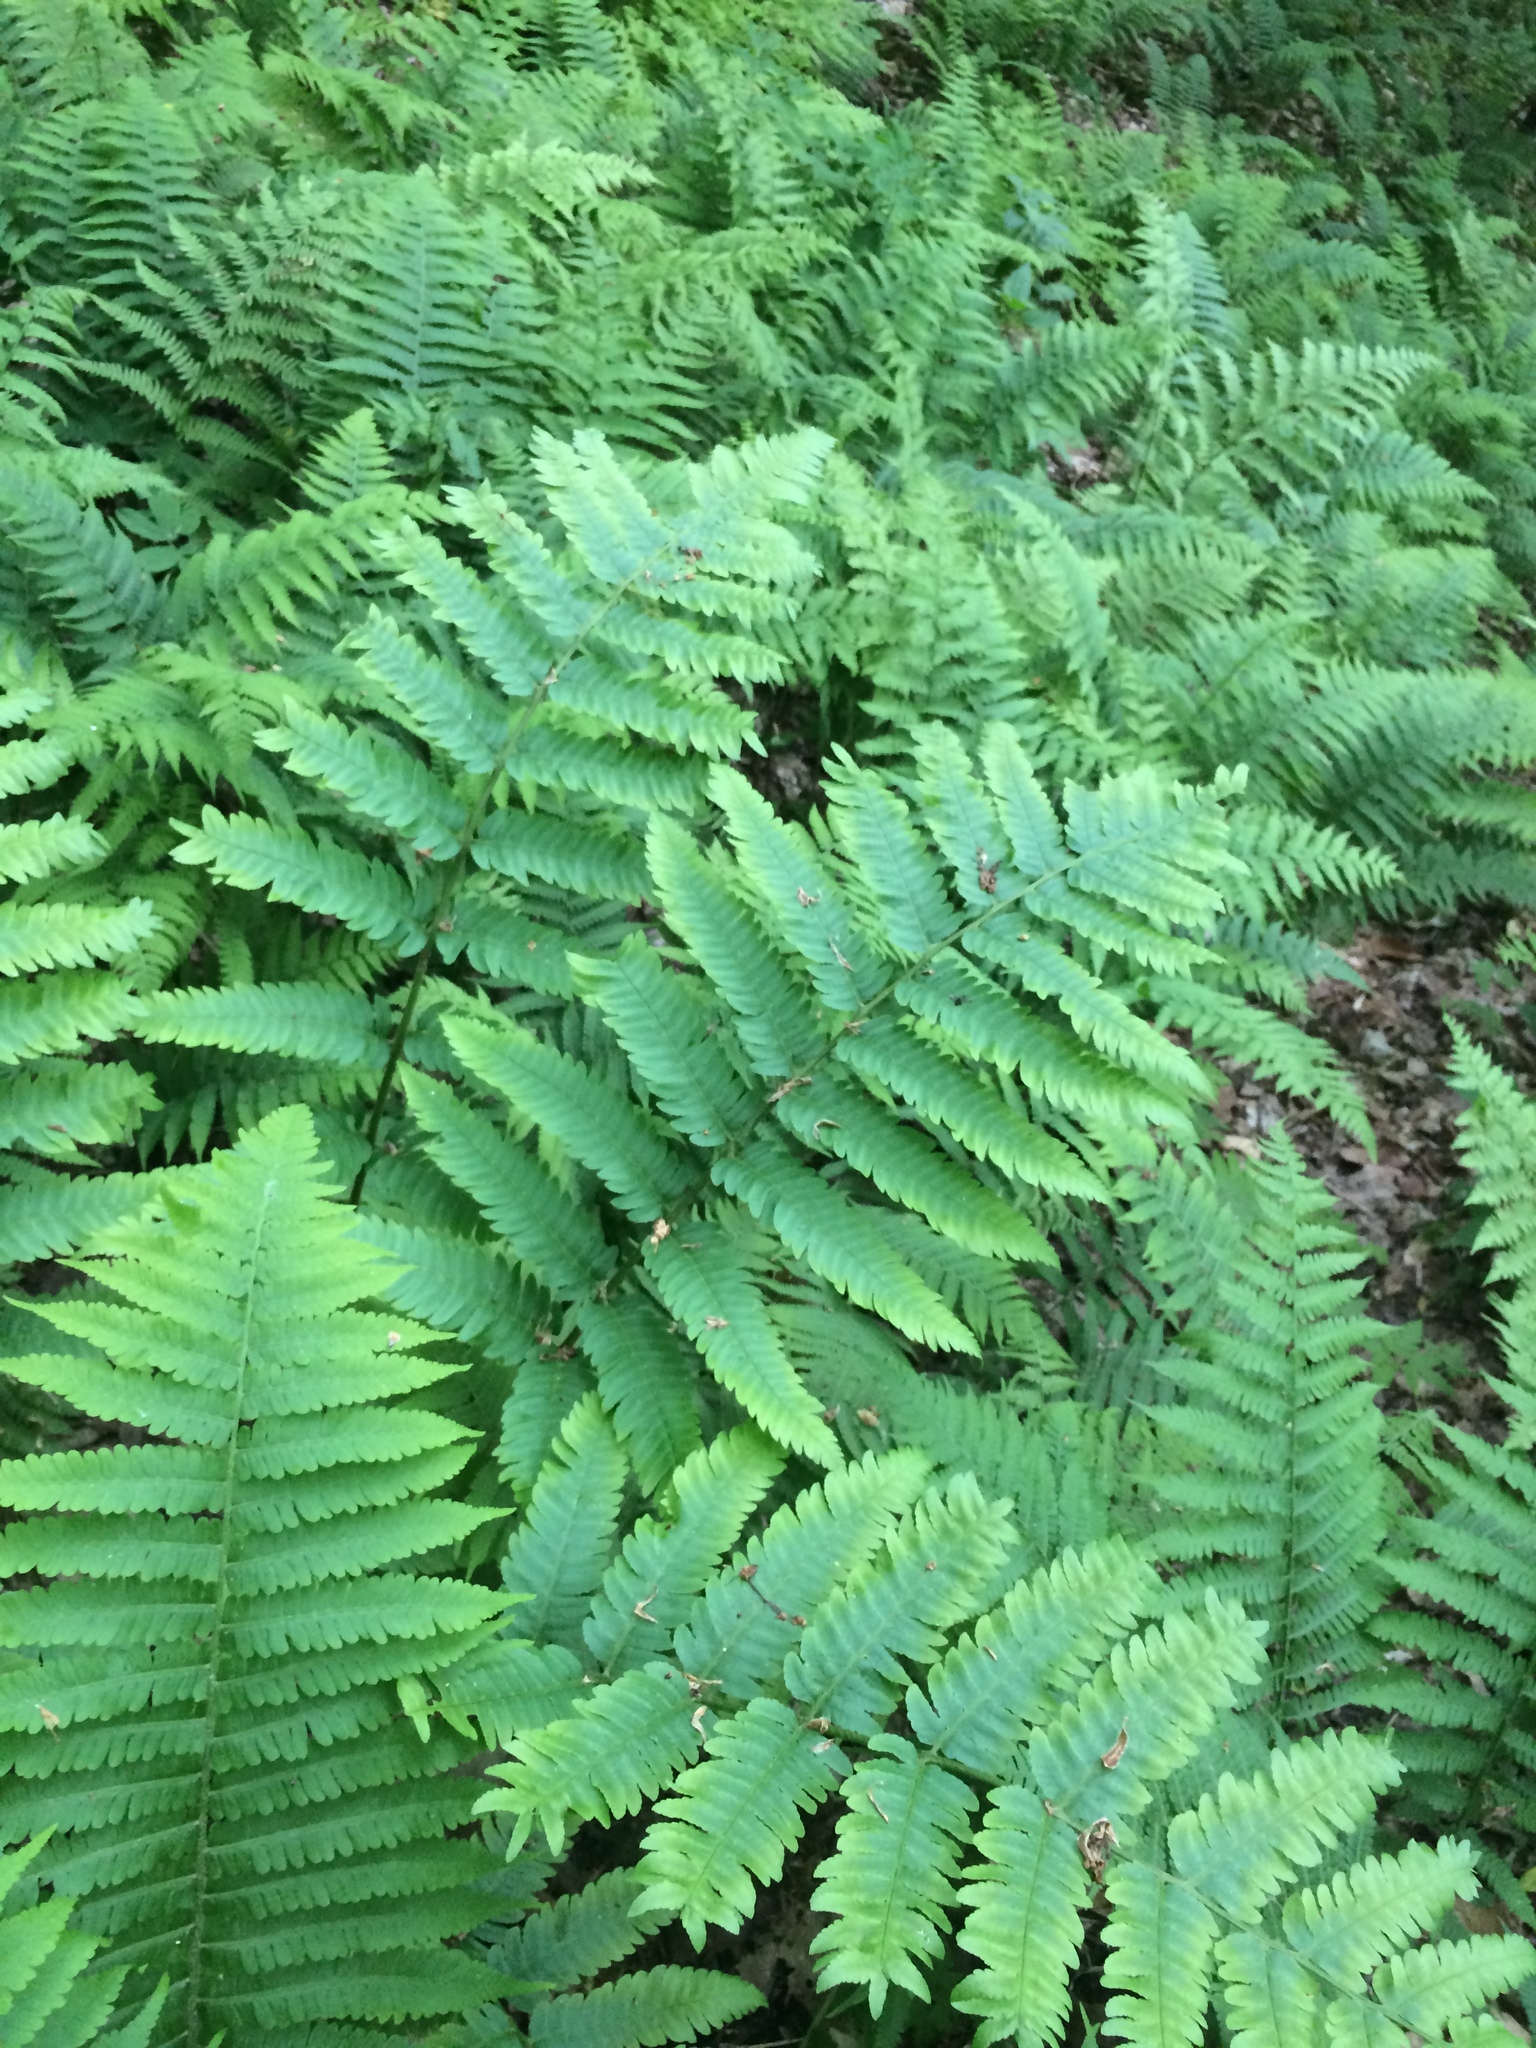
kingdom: Plantae
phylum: Tracheophyta
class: Polypodiopsida
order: Polypodiales
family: Dryopteridaceae
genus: Dryopteris
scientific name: Dryopteris goldieana
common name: Goldie's fern
